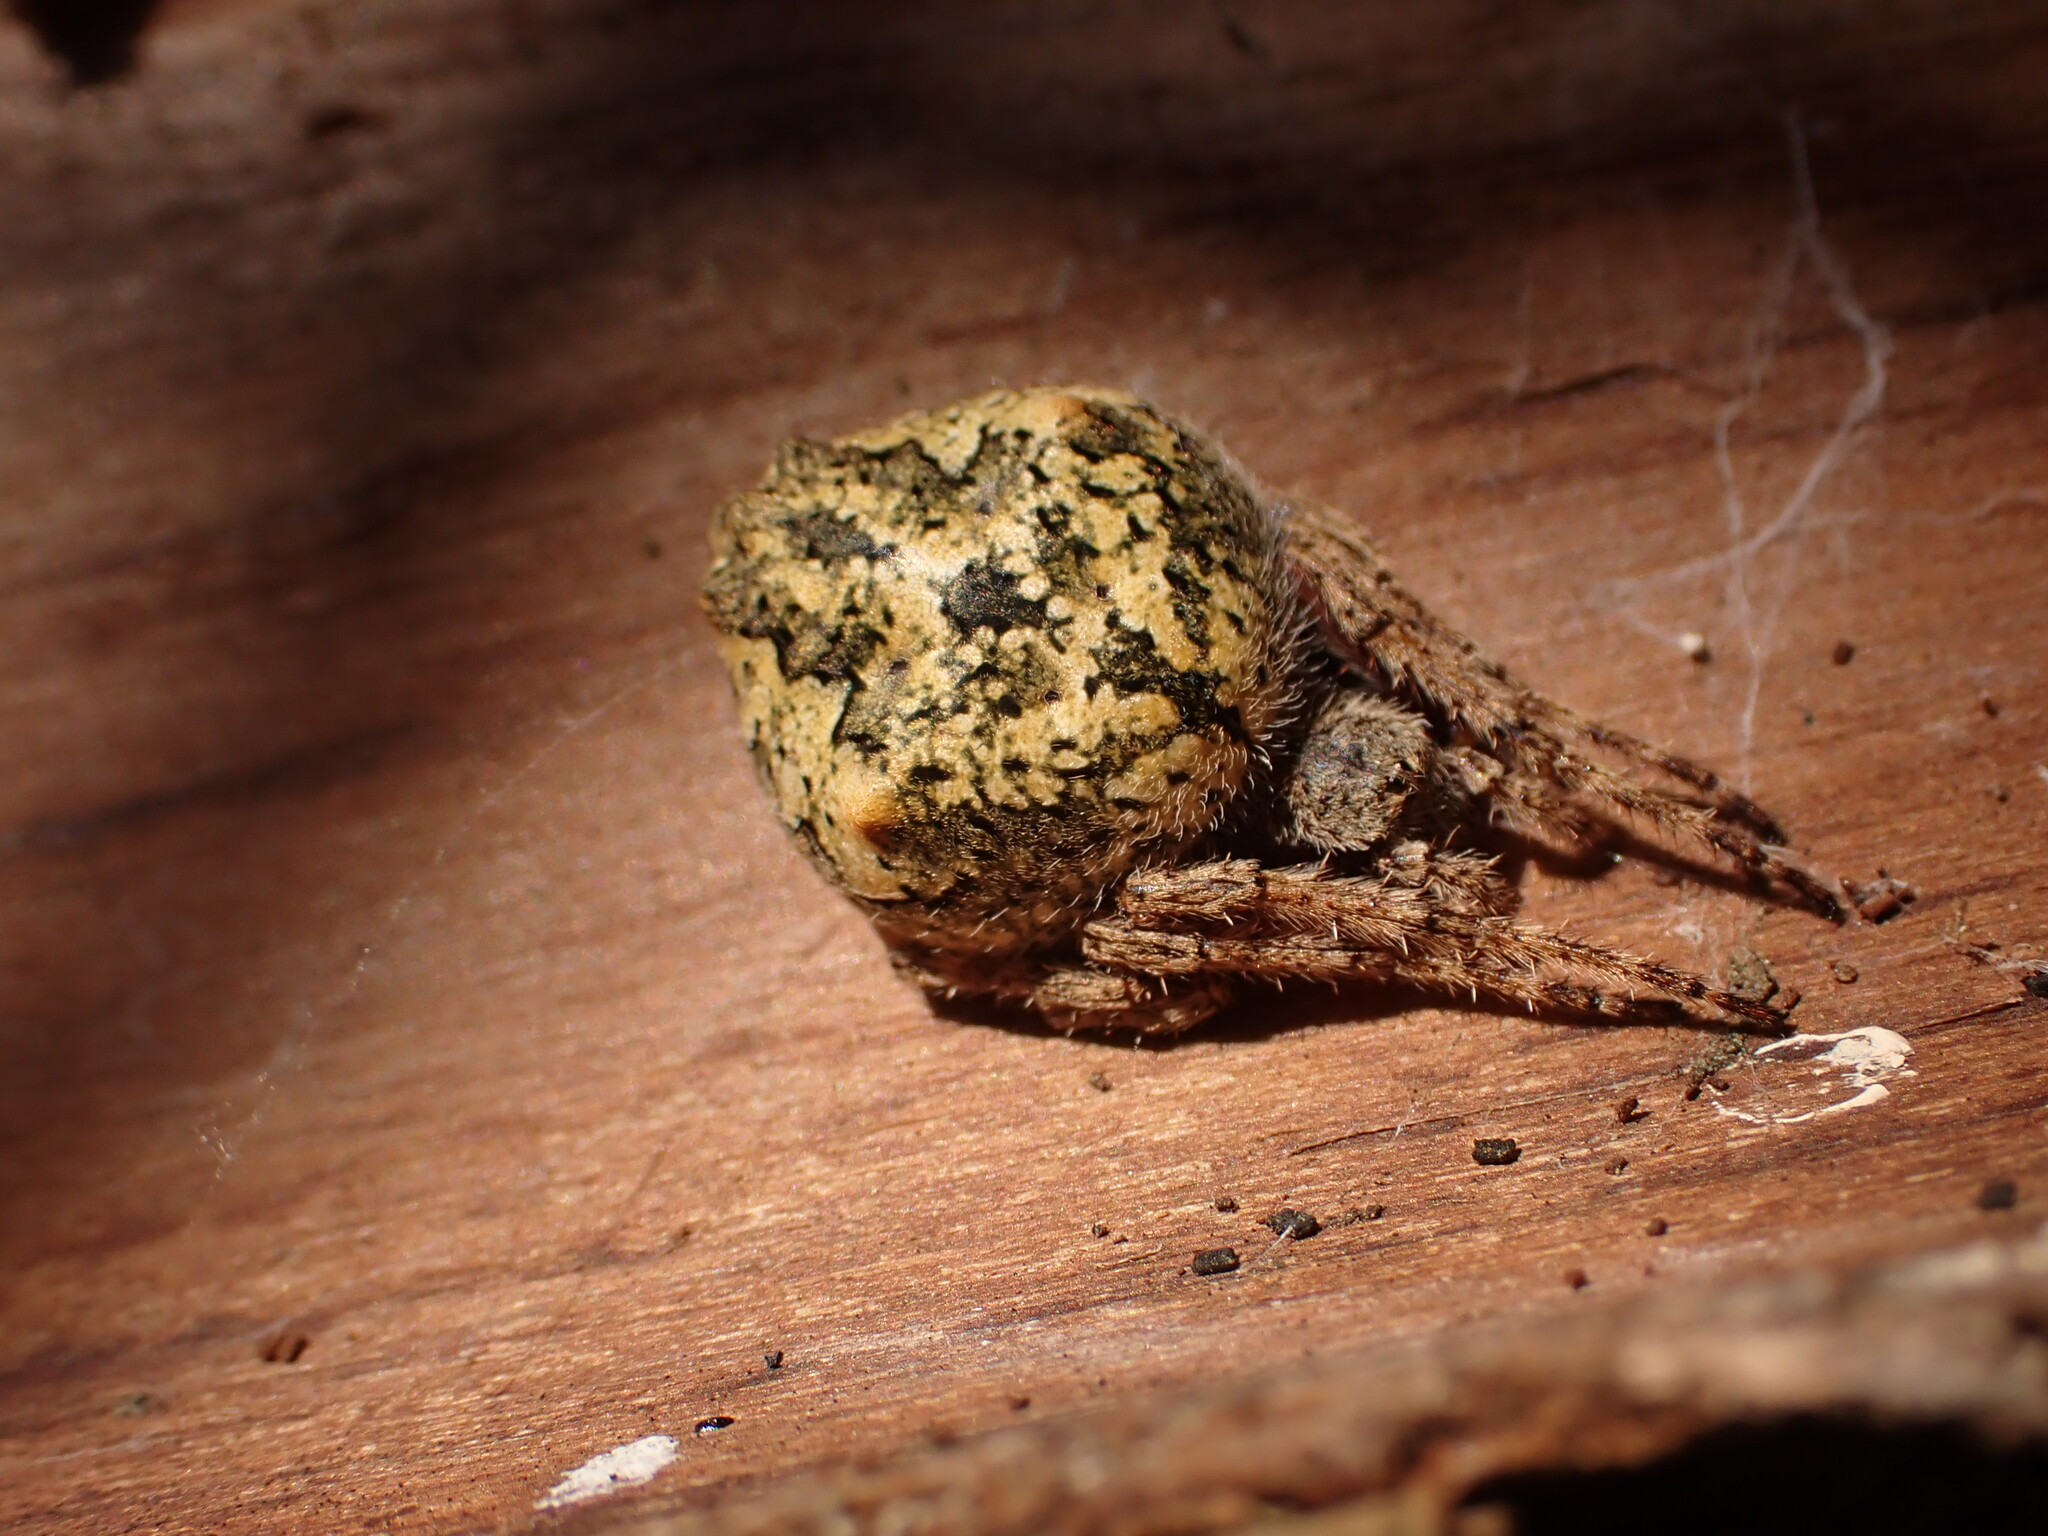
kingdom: Animalia
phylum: Arthropoda
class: Arachnida
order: Araneae
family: Araneidae
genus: Eriophora
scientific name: Eriophora pustulosa
